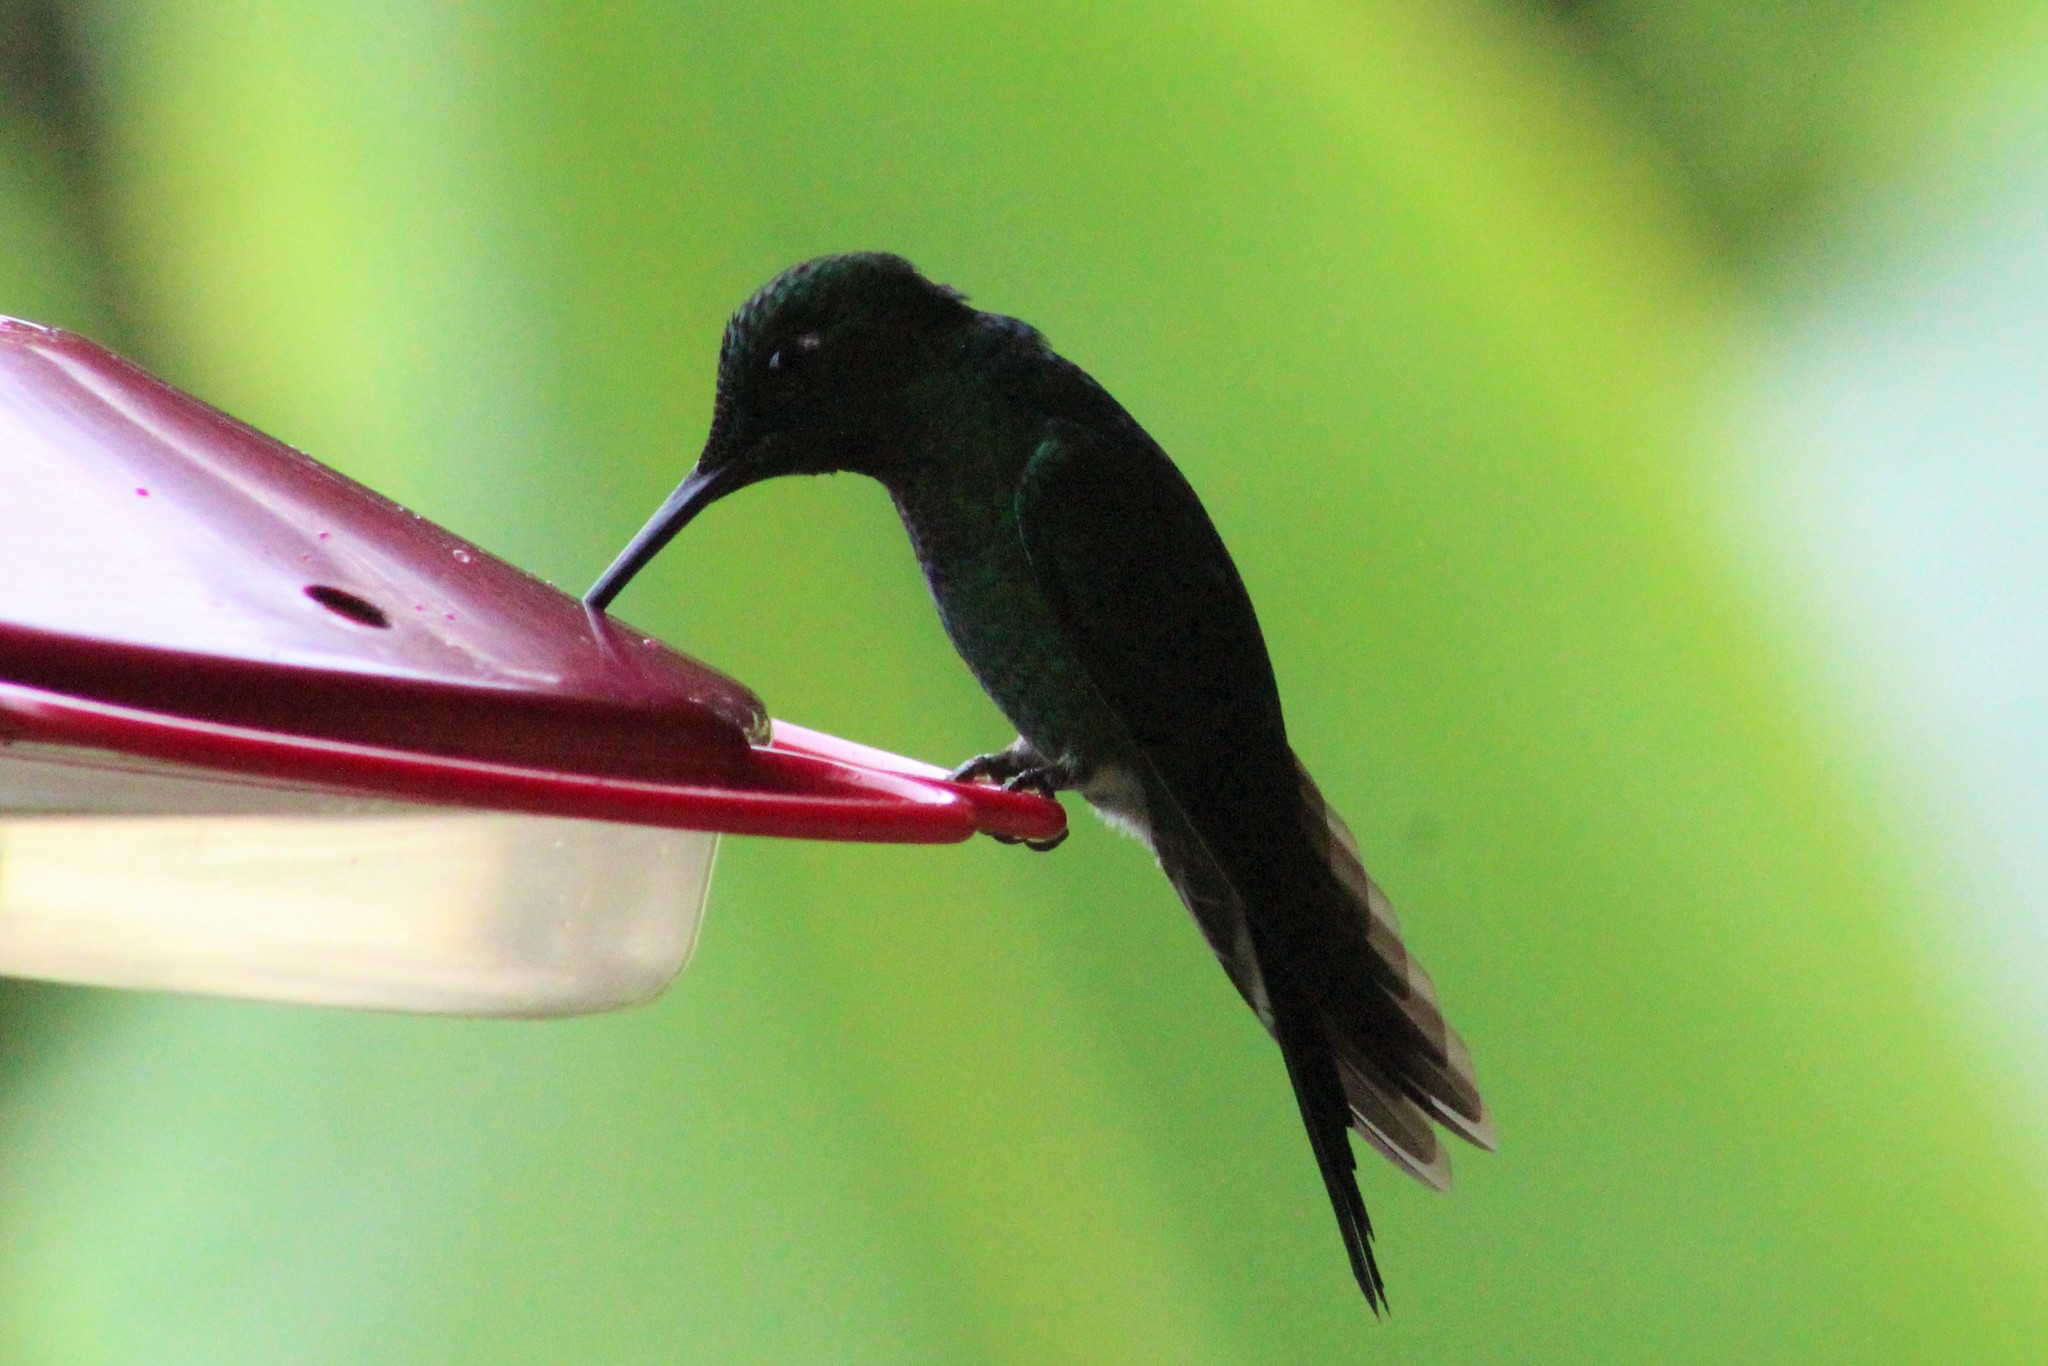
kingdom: Animalia
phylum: Chordata
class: Aves
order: Apodiformes
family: Trochilidae
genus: Heliodoxa
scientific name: Heliodoxa jacula
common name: Green-crowned brilliant
